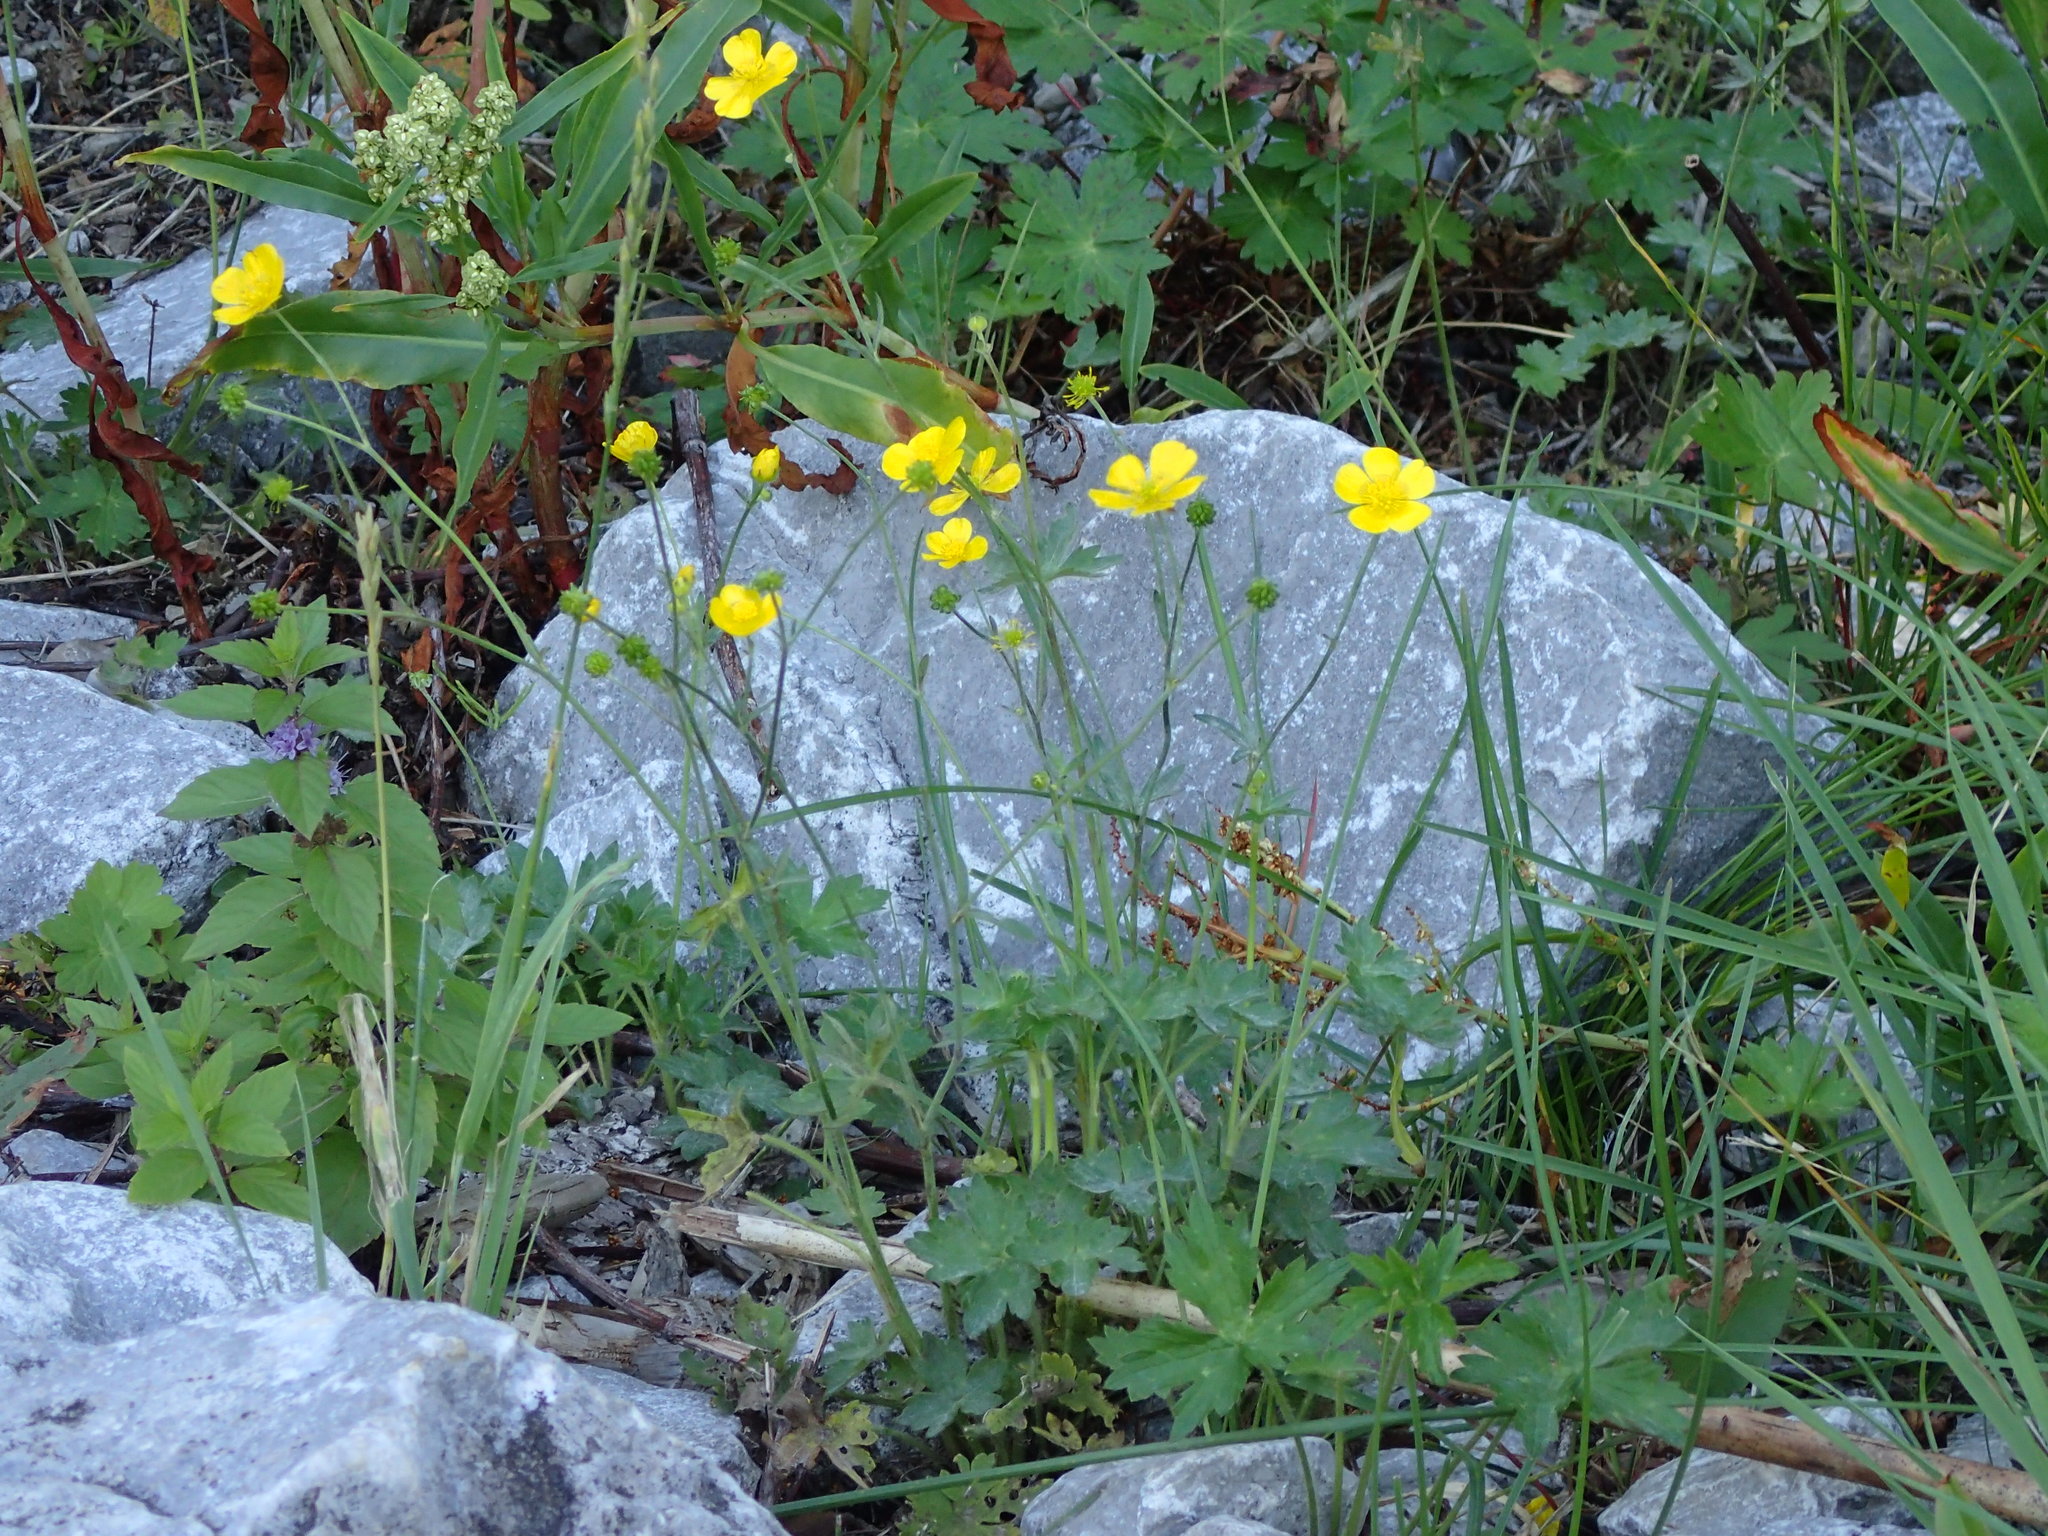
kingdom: Plantae
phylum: Tracheophyta
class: Magnoliopsida
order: Ranunculales
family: Ranunculaceae
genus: Ranunculus
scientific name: Ranunculus acris
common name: Meadow buttercup
